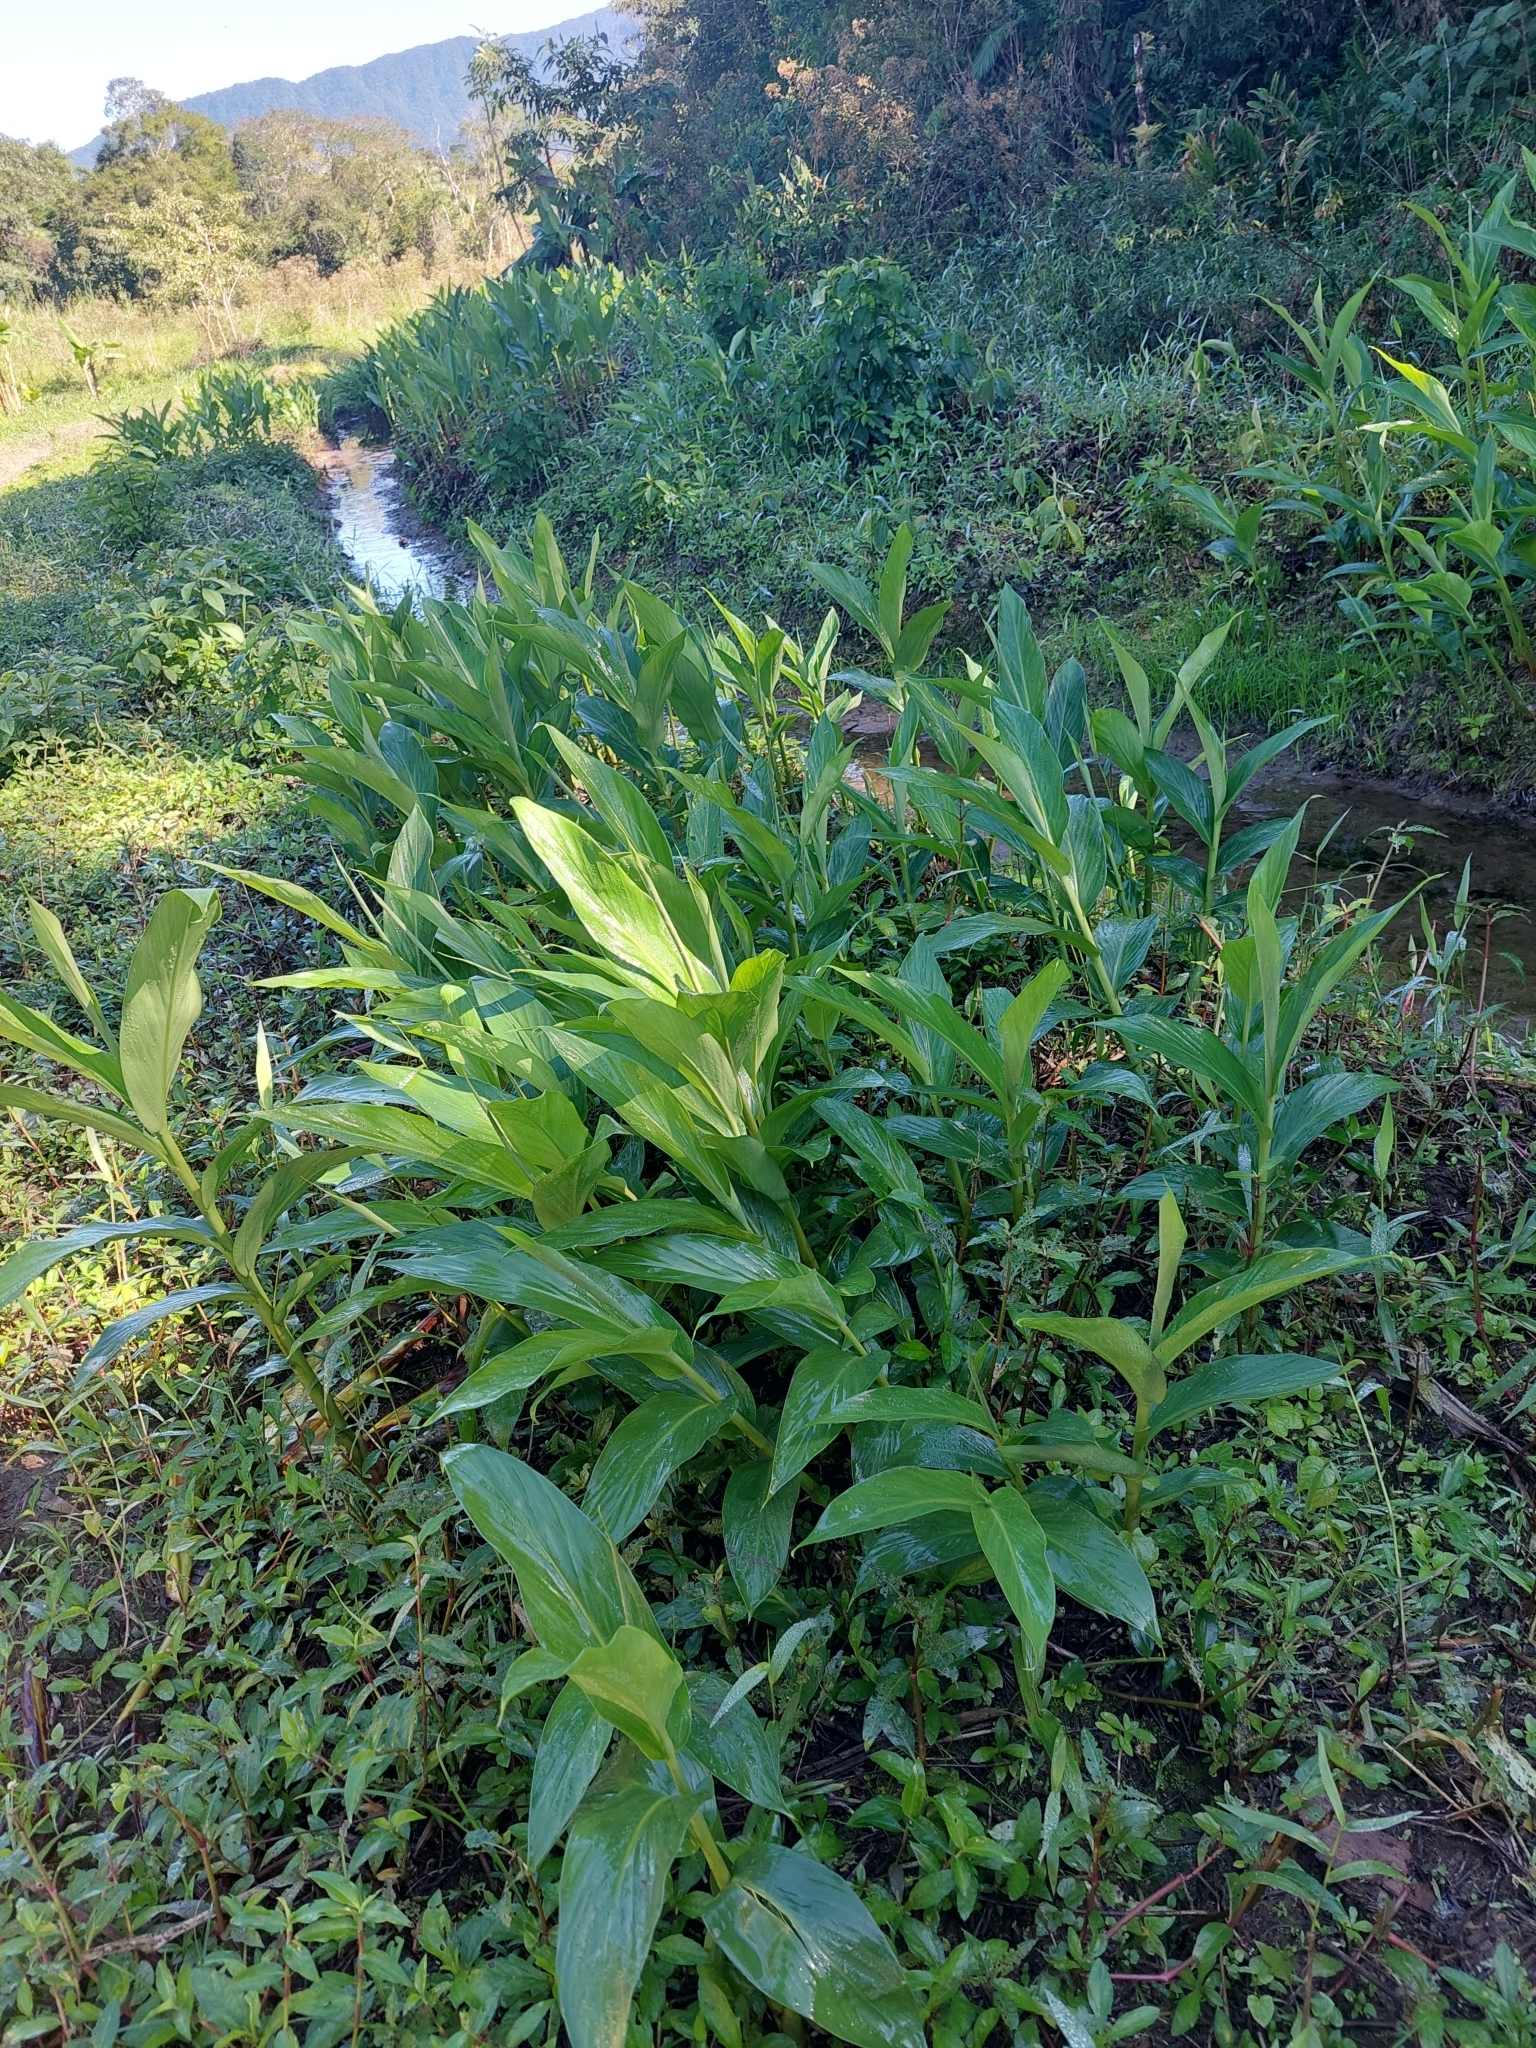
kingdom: Plantae
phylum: Tracheophyta
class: Liliopsida
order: Zingiberales
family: Zingiberaceae
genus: Hedychium
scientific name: Hedychium coronarium
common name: White garland-lily
